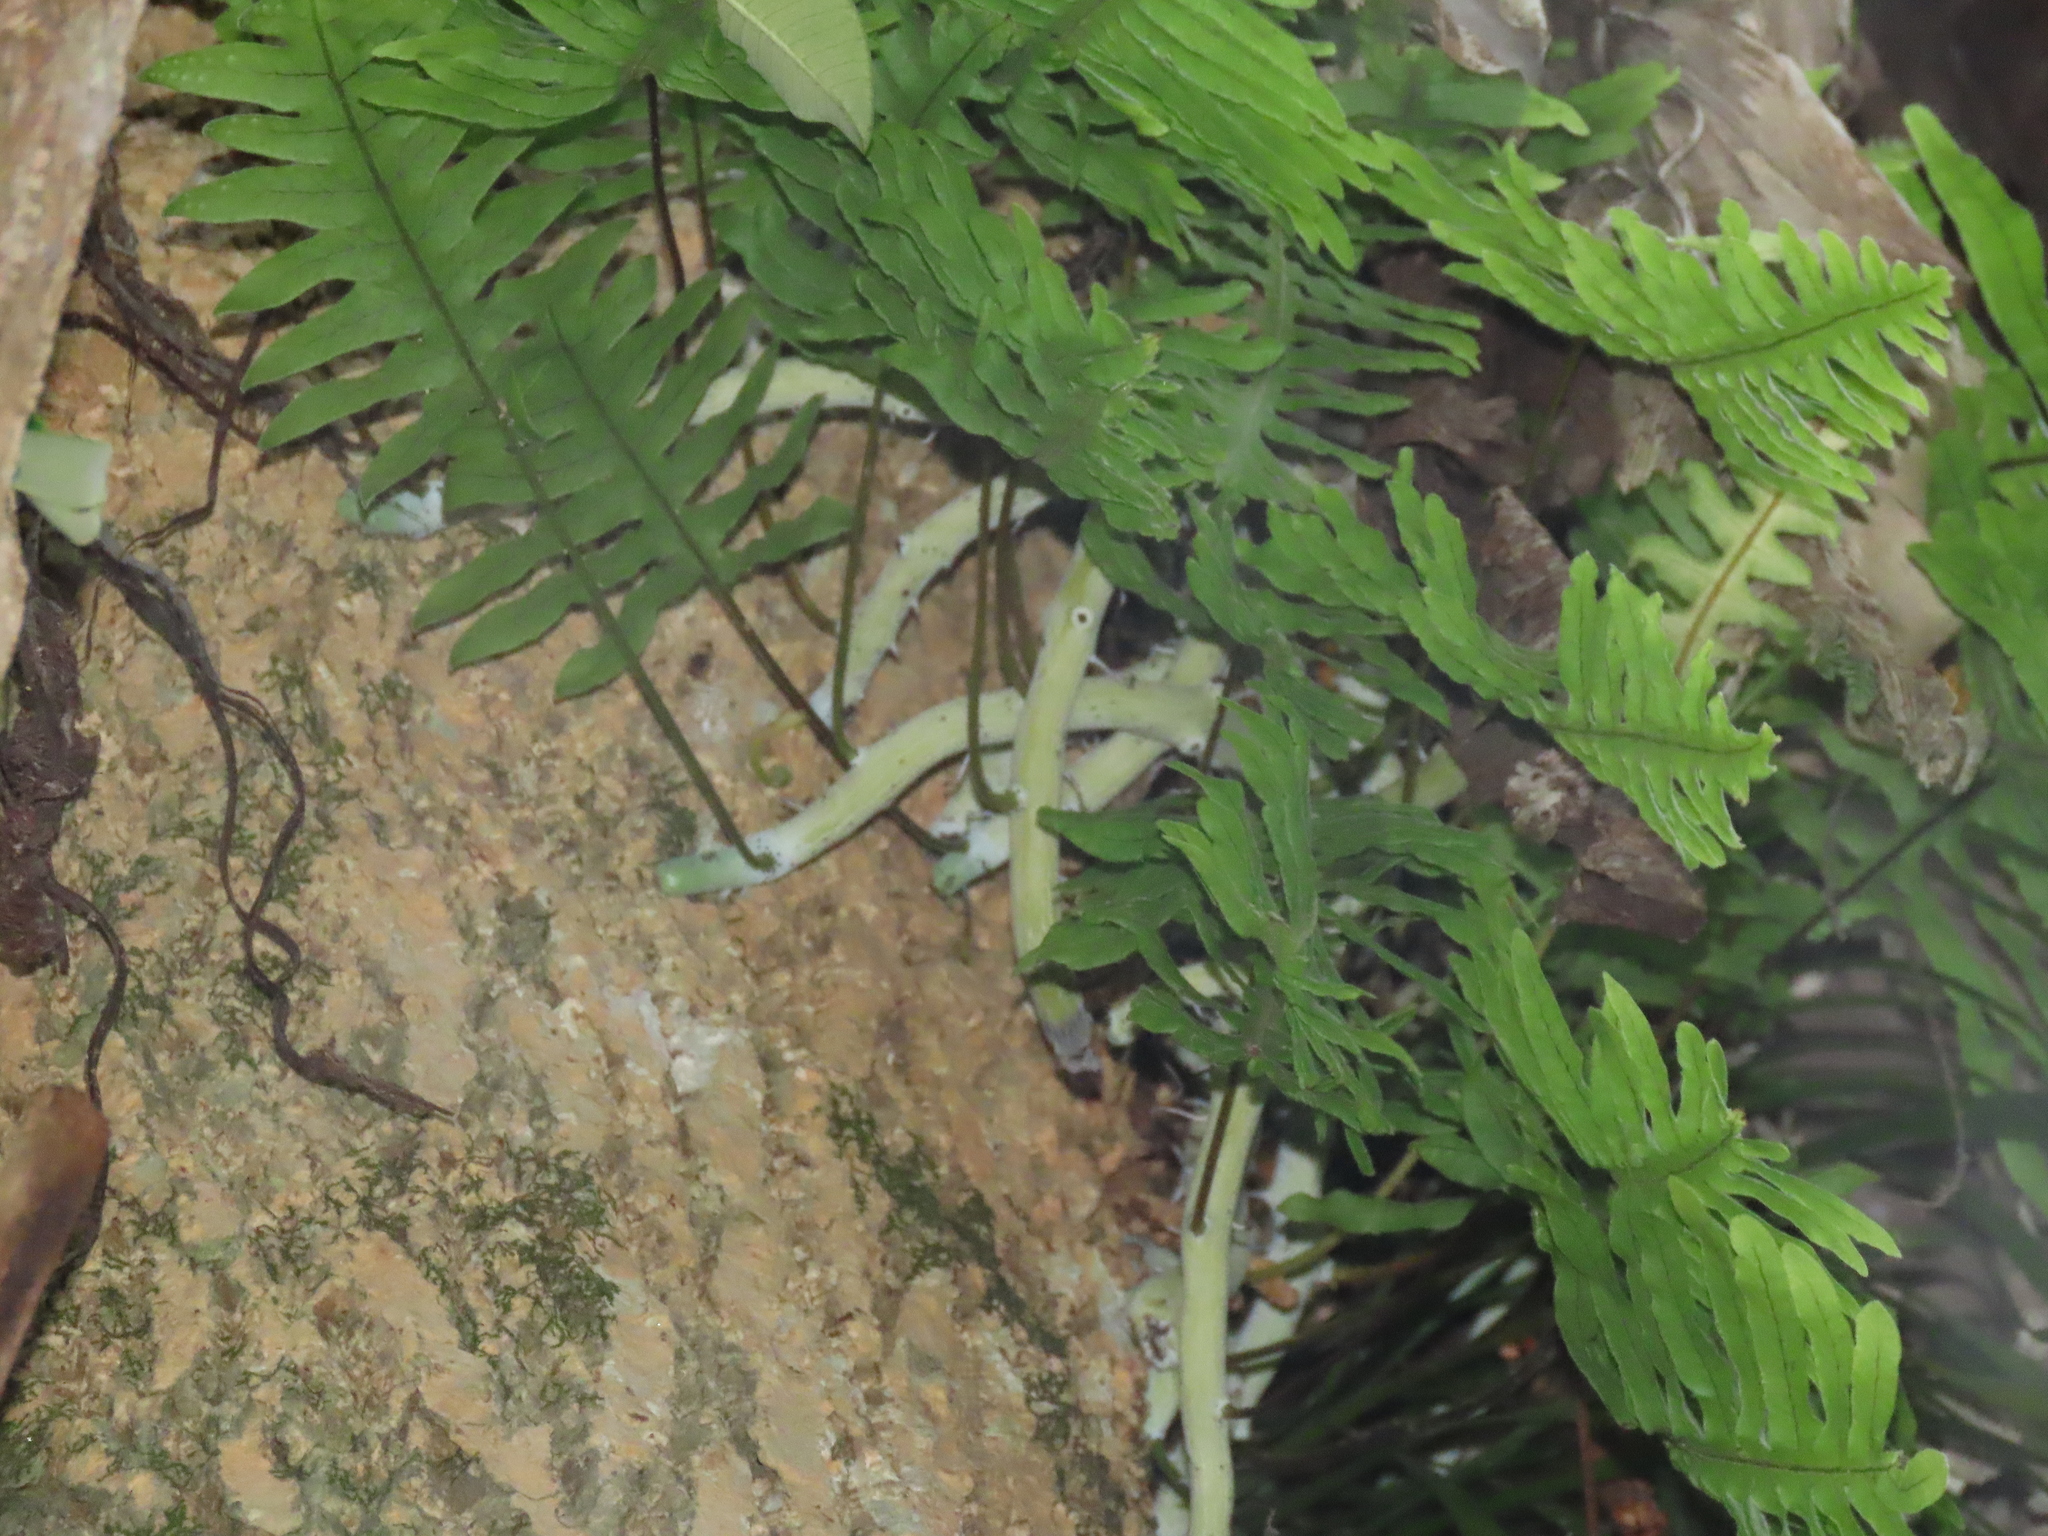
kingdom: Plantae
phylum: Tracheophyta
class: Polypodiopsida
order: Polypodiales
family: Polypodiaceae
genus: Goniophlebium
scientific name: Goniophlebium formosanum
